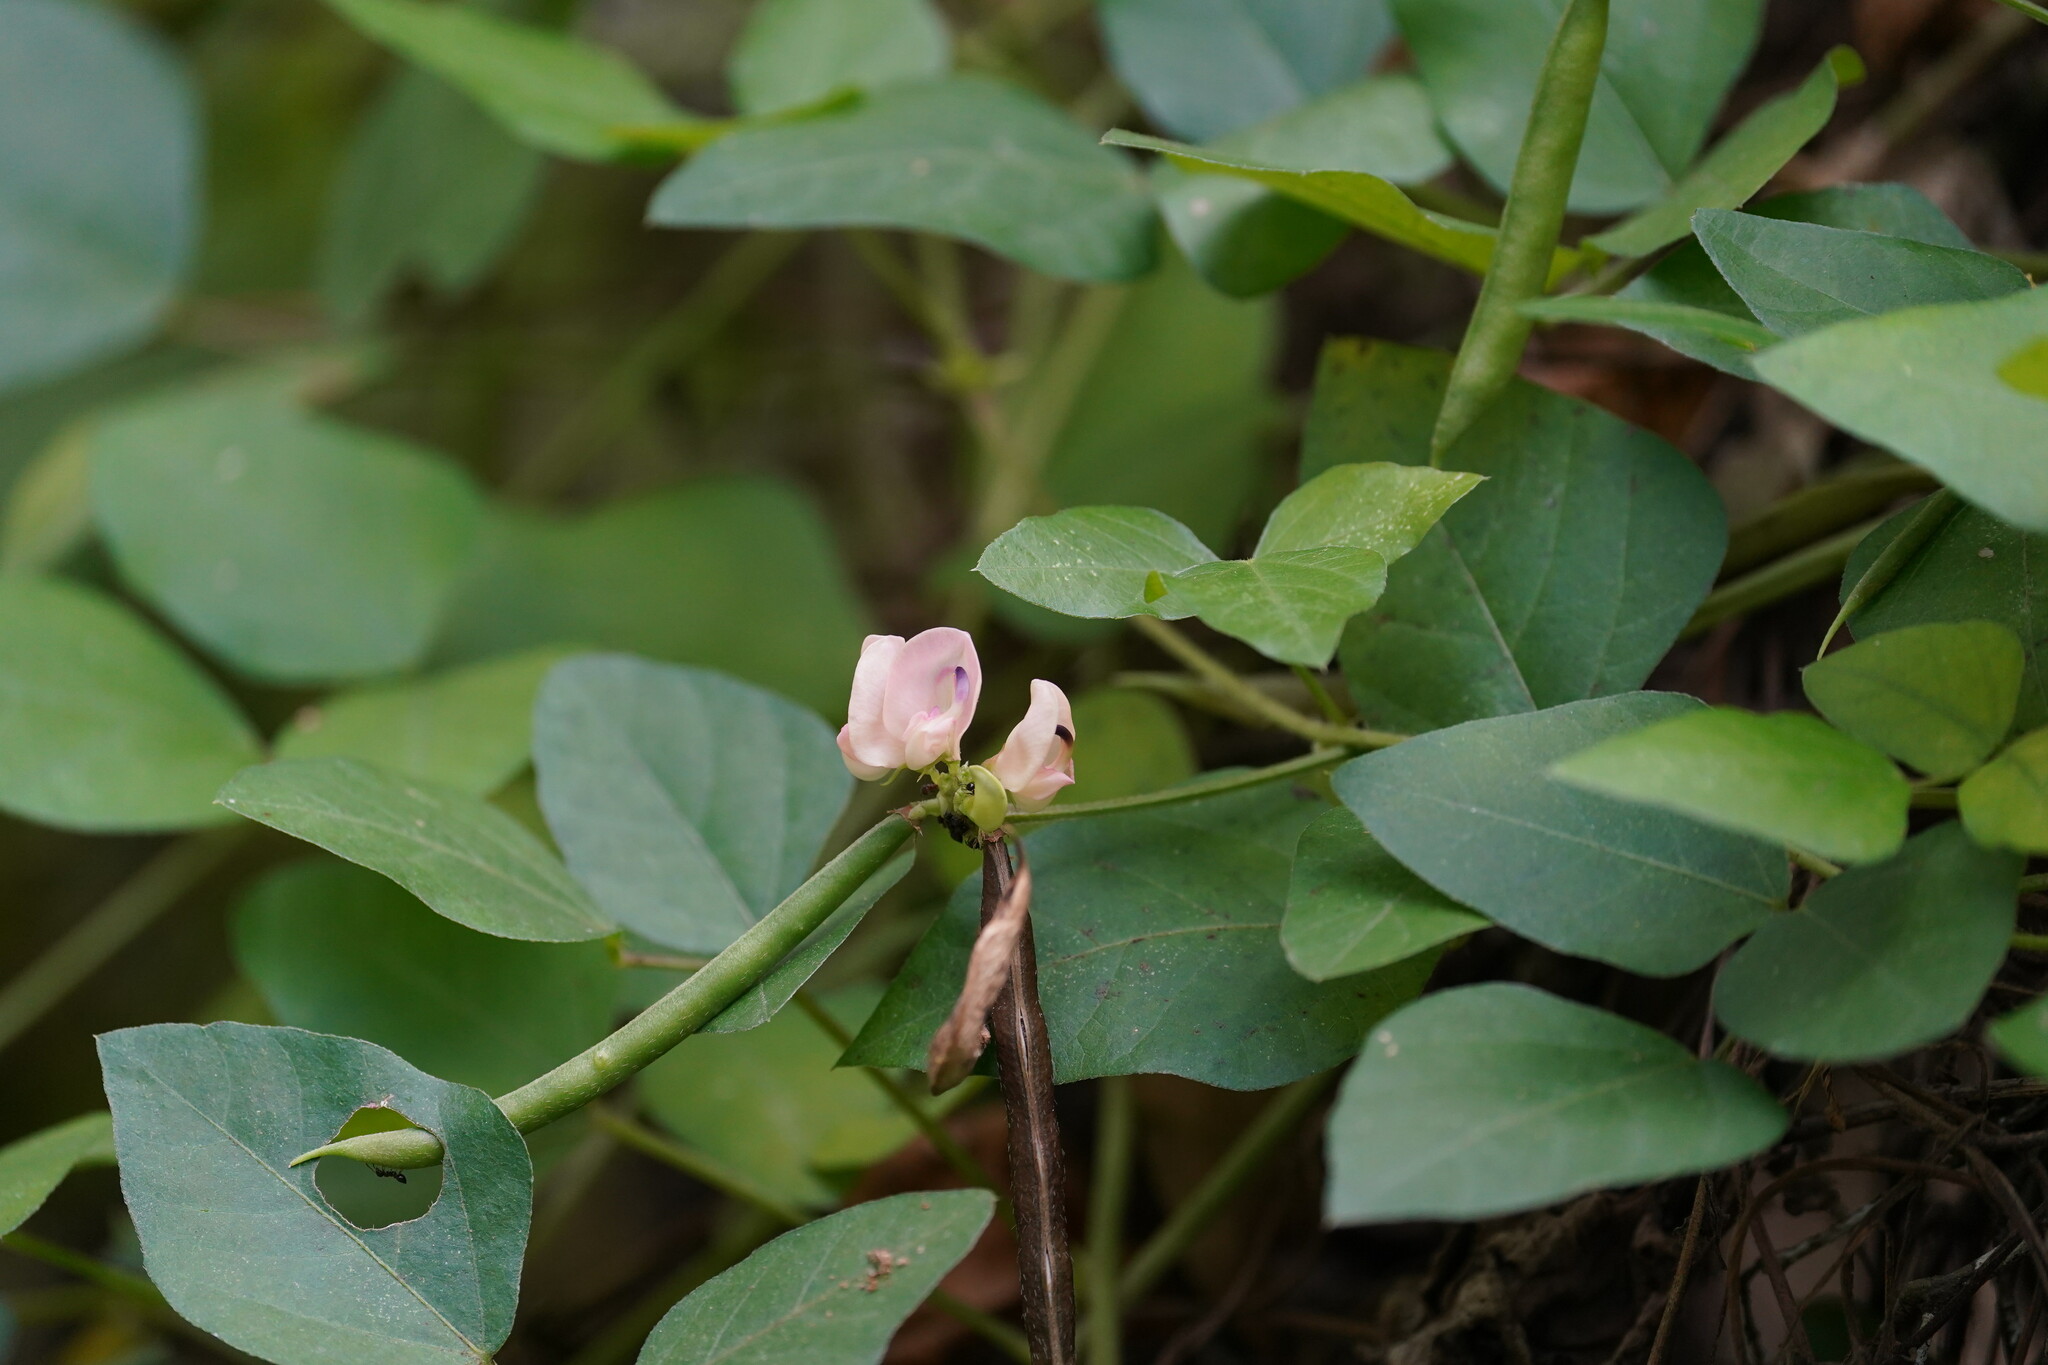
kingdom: Plantae
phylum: Tracheophyta
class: Magnoliopsida
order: Fabales
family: Fabaceae
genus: Strophostyles
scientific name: Strophostyles helvola
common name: Trailing wild bean
